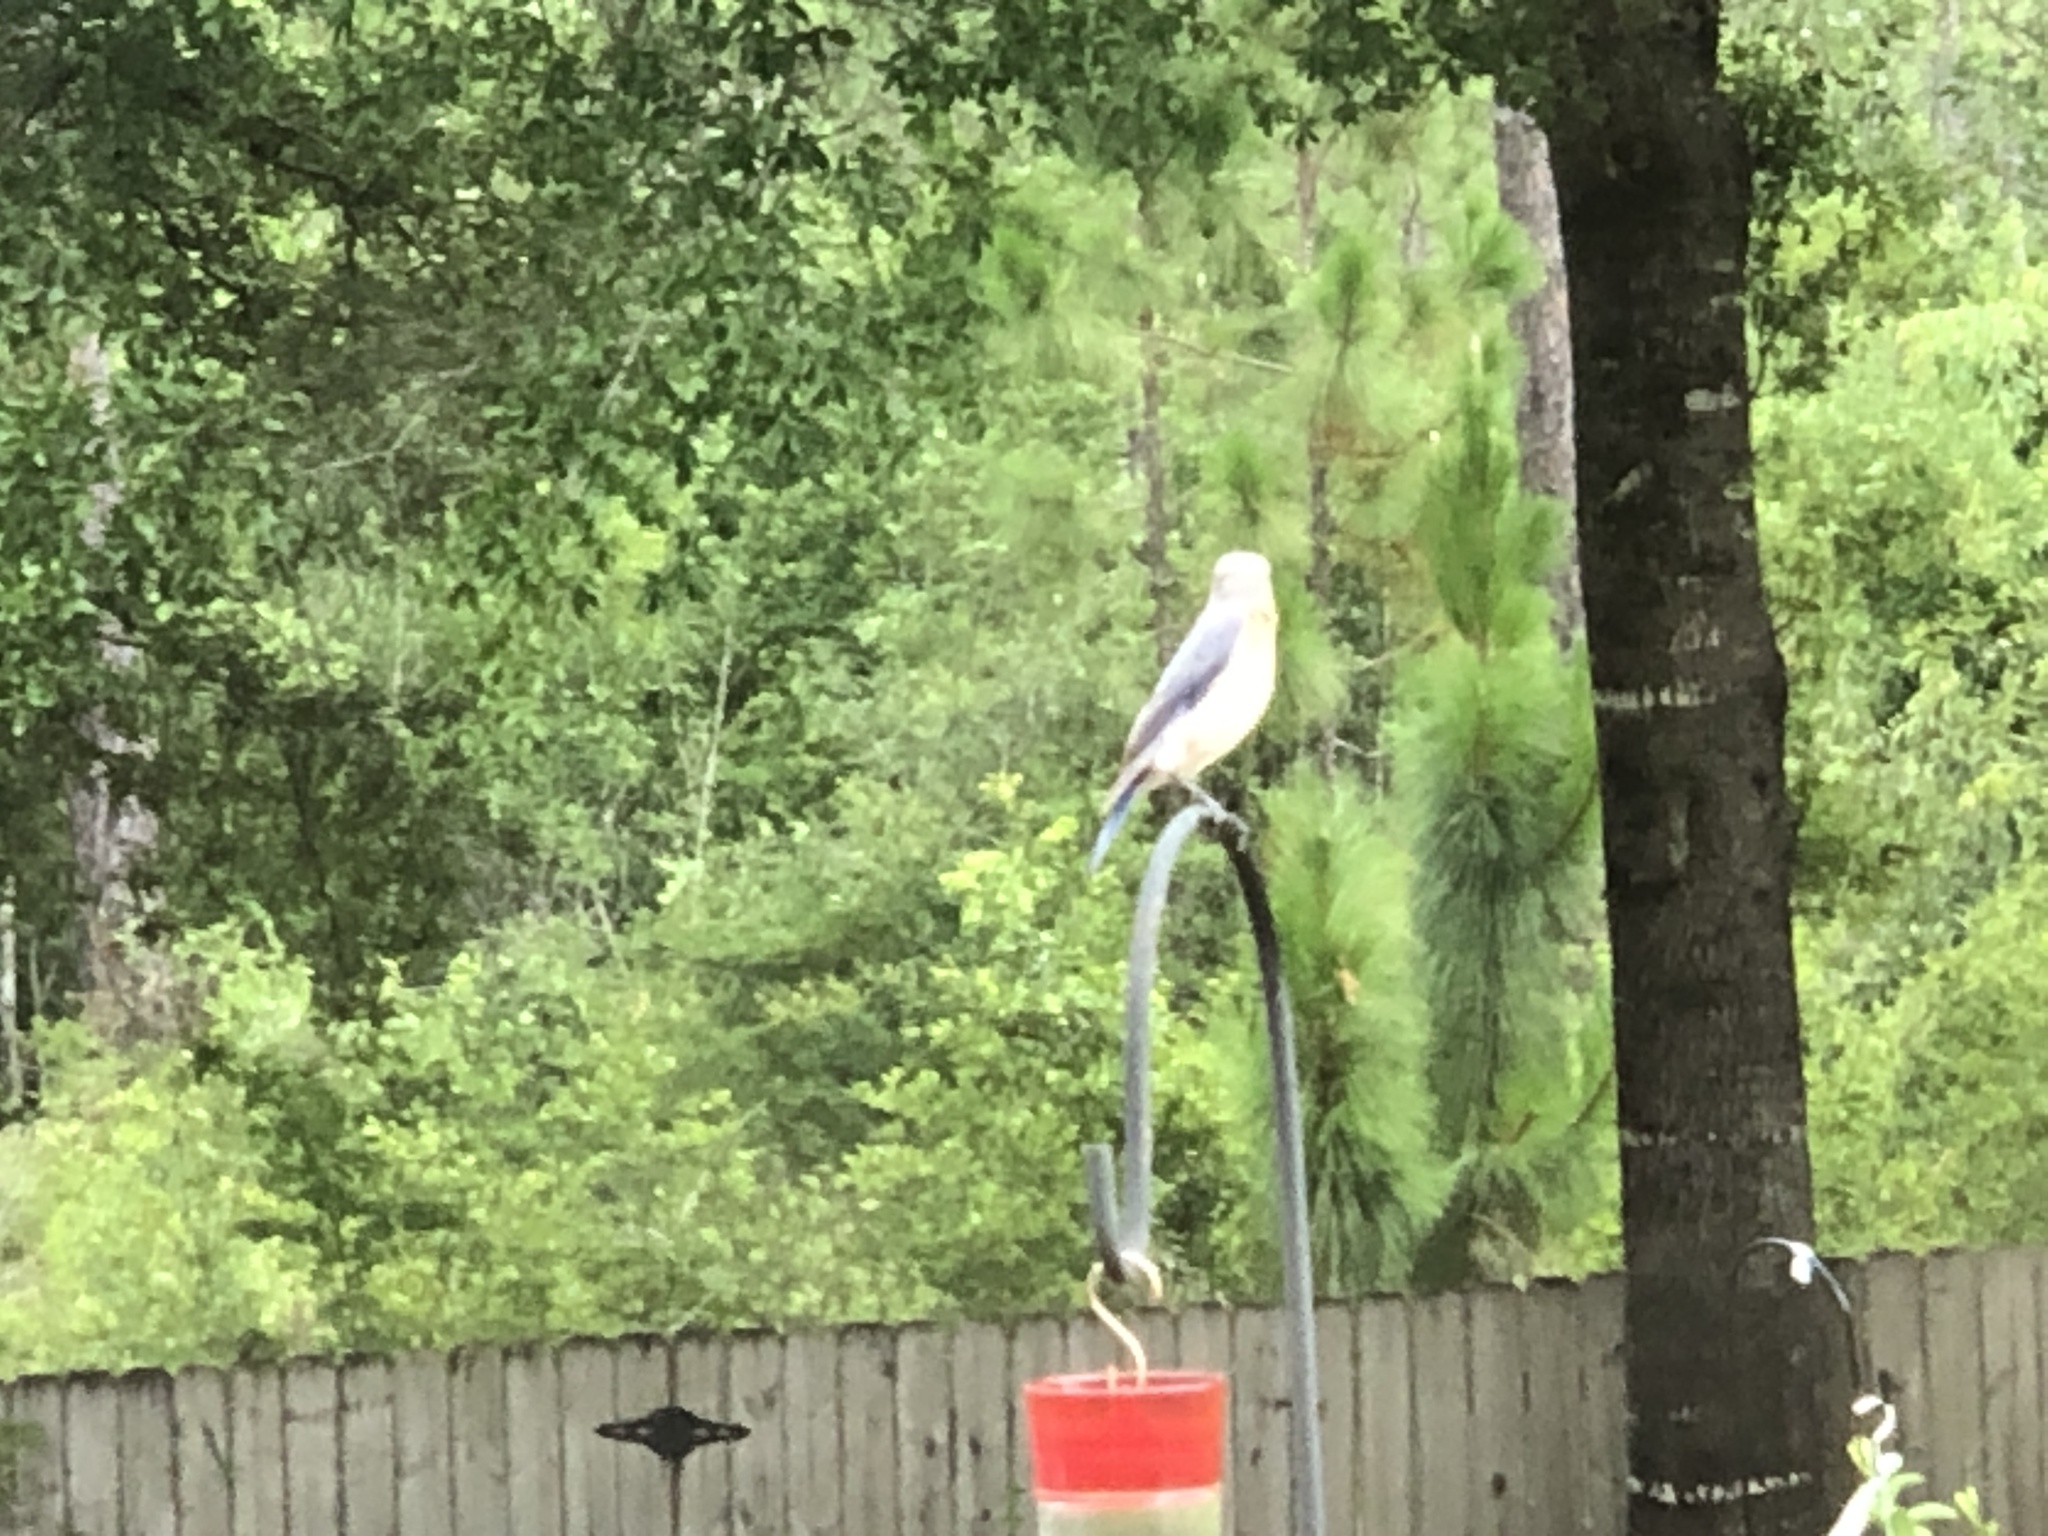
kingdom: Animalia
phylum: Chordata
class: Aves
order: Passeriformes
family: Turdidae
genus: Sialia
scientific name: Sialia sialis
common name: Eastern bluebird
